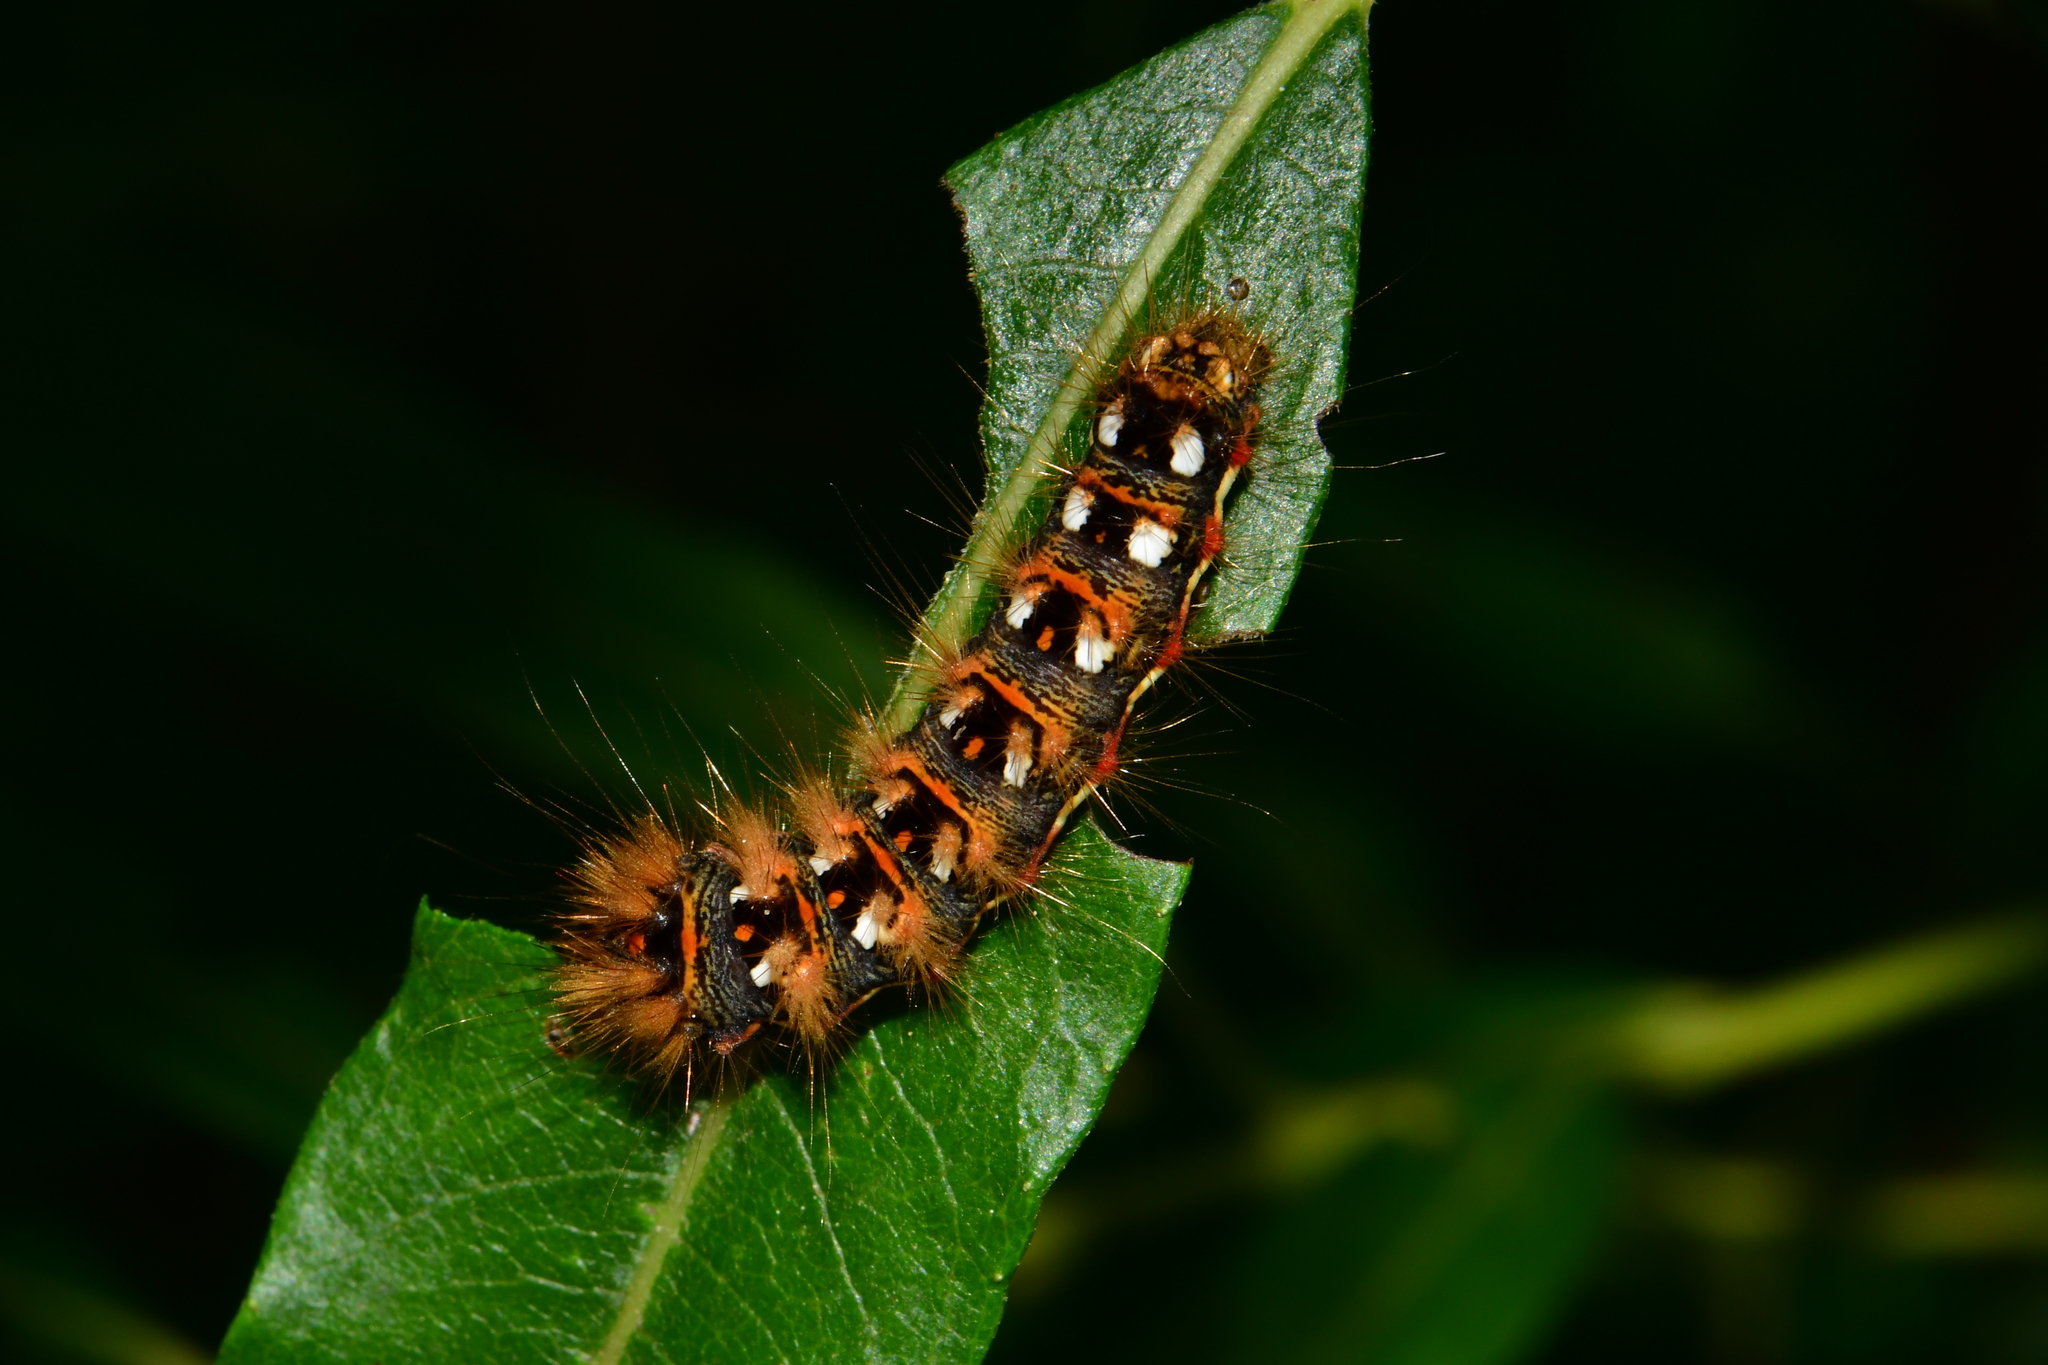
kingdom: Animalia
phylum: Arthropoda
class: Insecta
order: Lepidoptera
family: Noctuidae
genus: Acronicta
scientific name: Acronicta rumicis
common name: Knot grass
